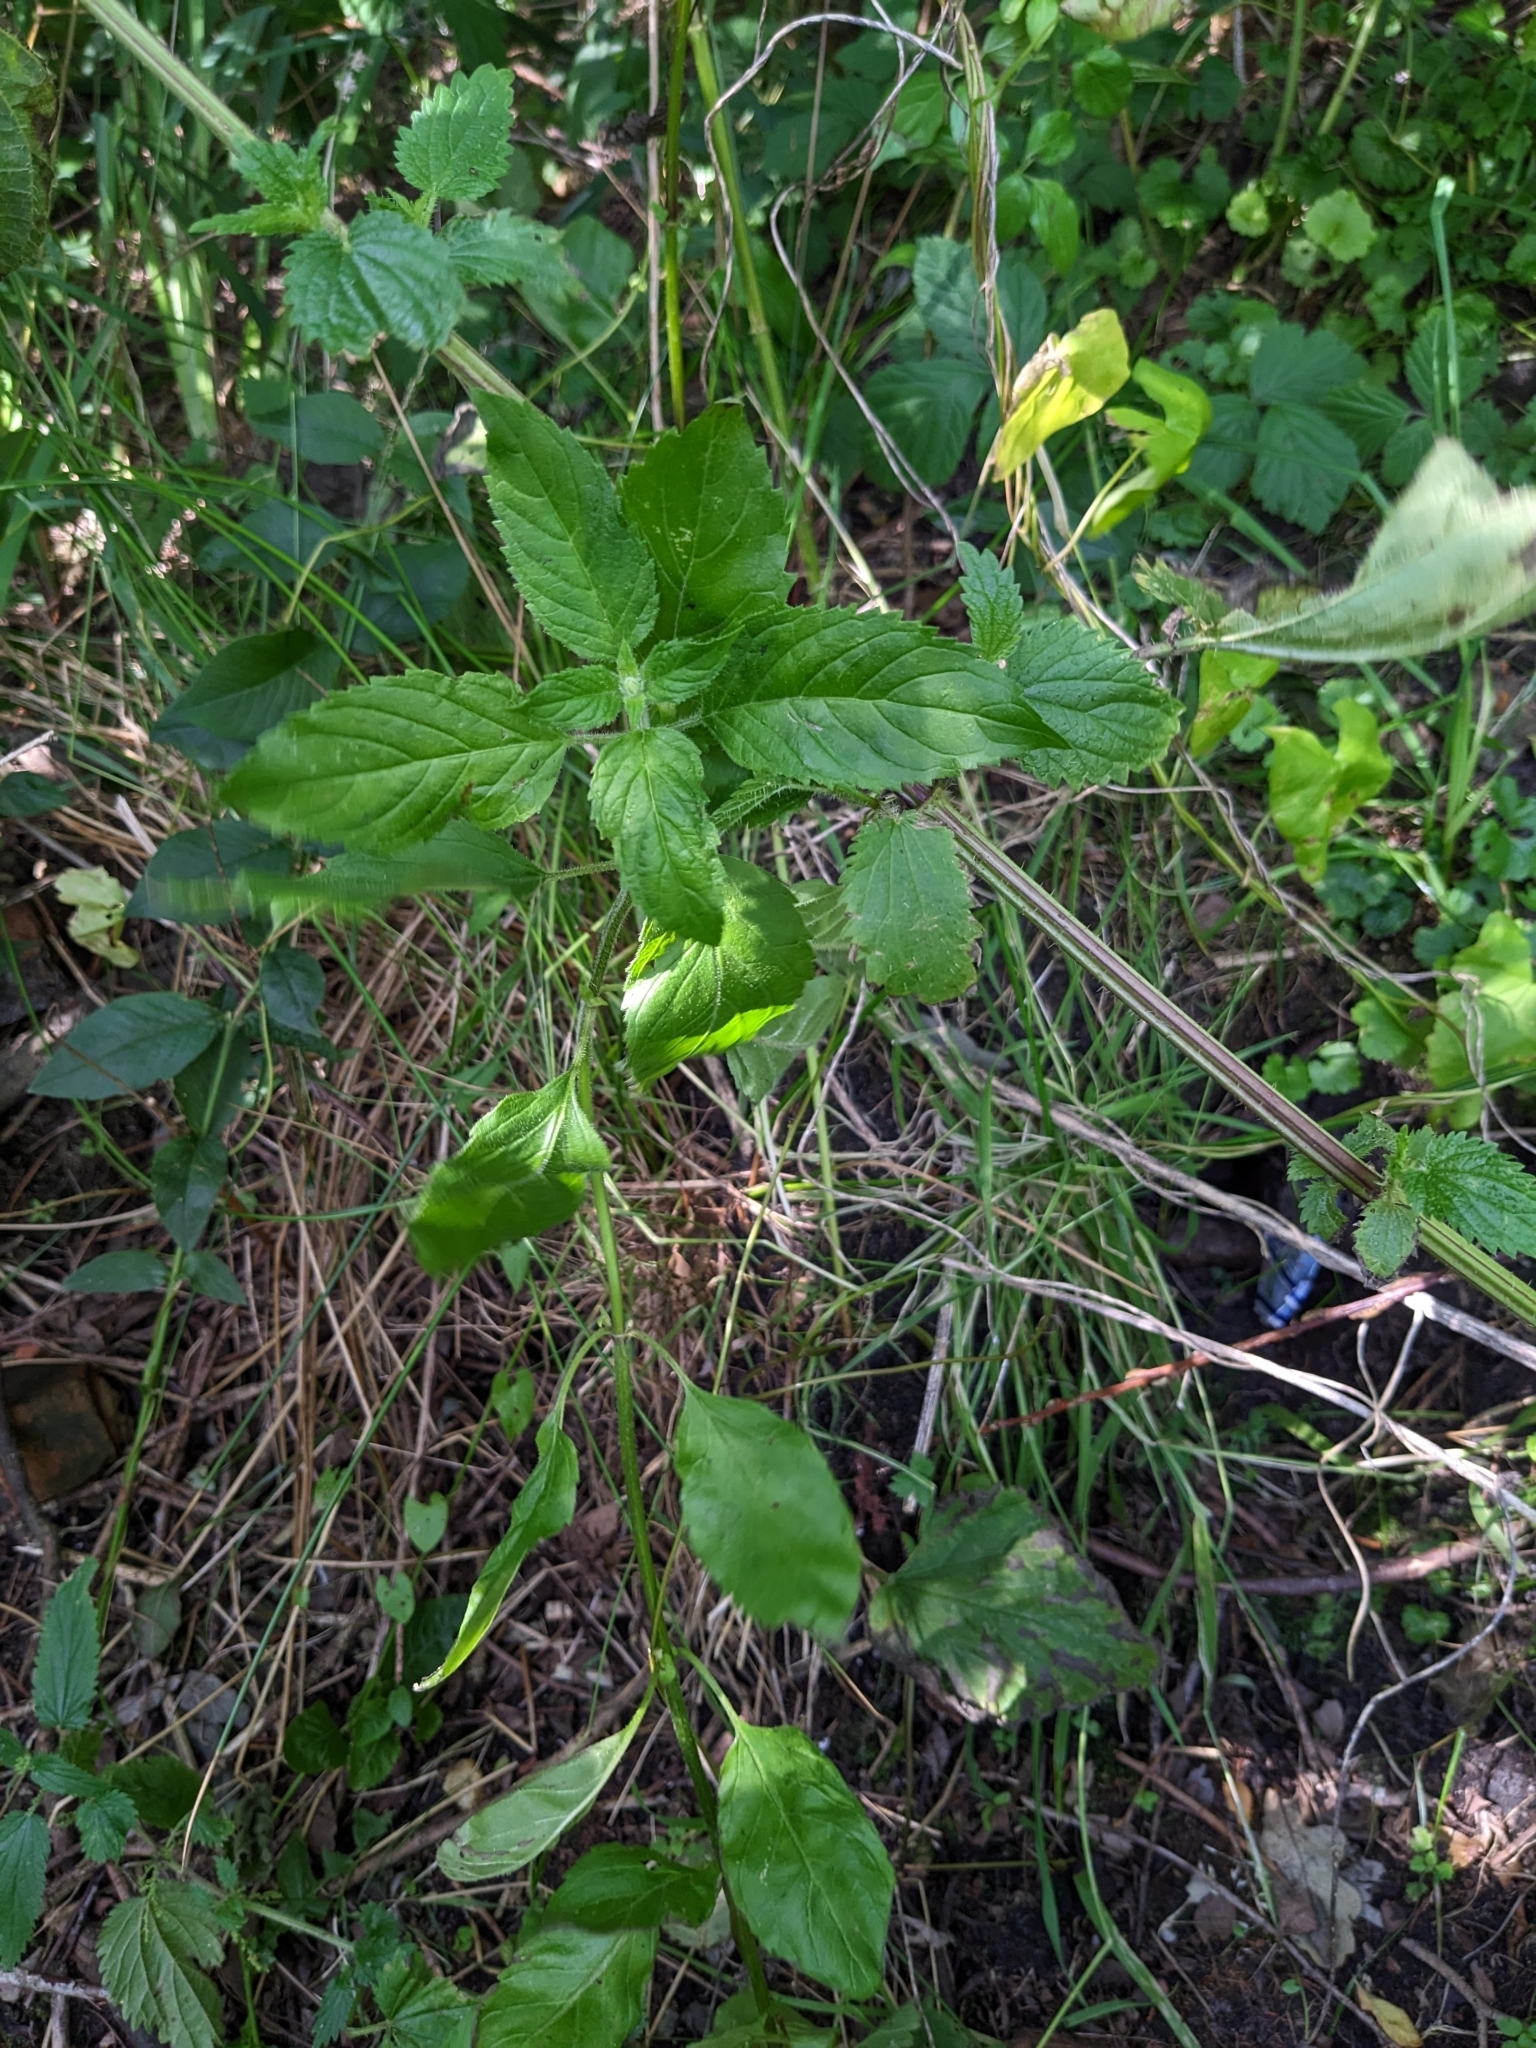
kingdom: Plantae
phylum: Tracheophyta
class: Magnoliopsida
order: Lamiales
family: Lamiaceae
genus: Mentha
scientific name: Mentha aquatica
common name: Water mint
